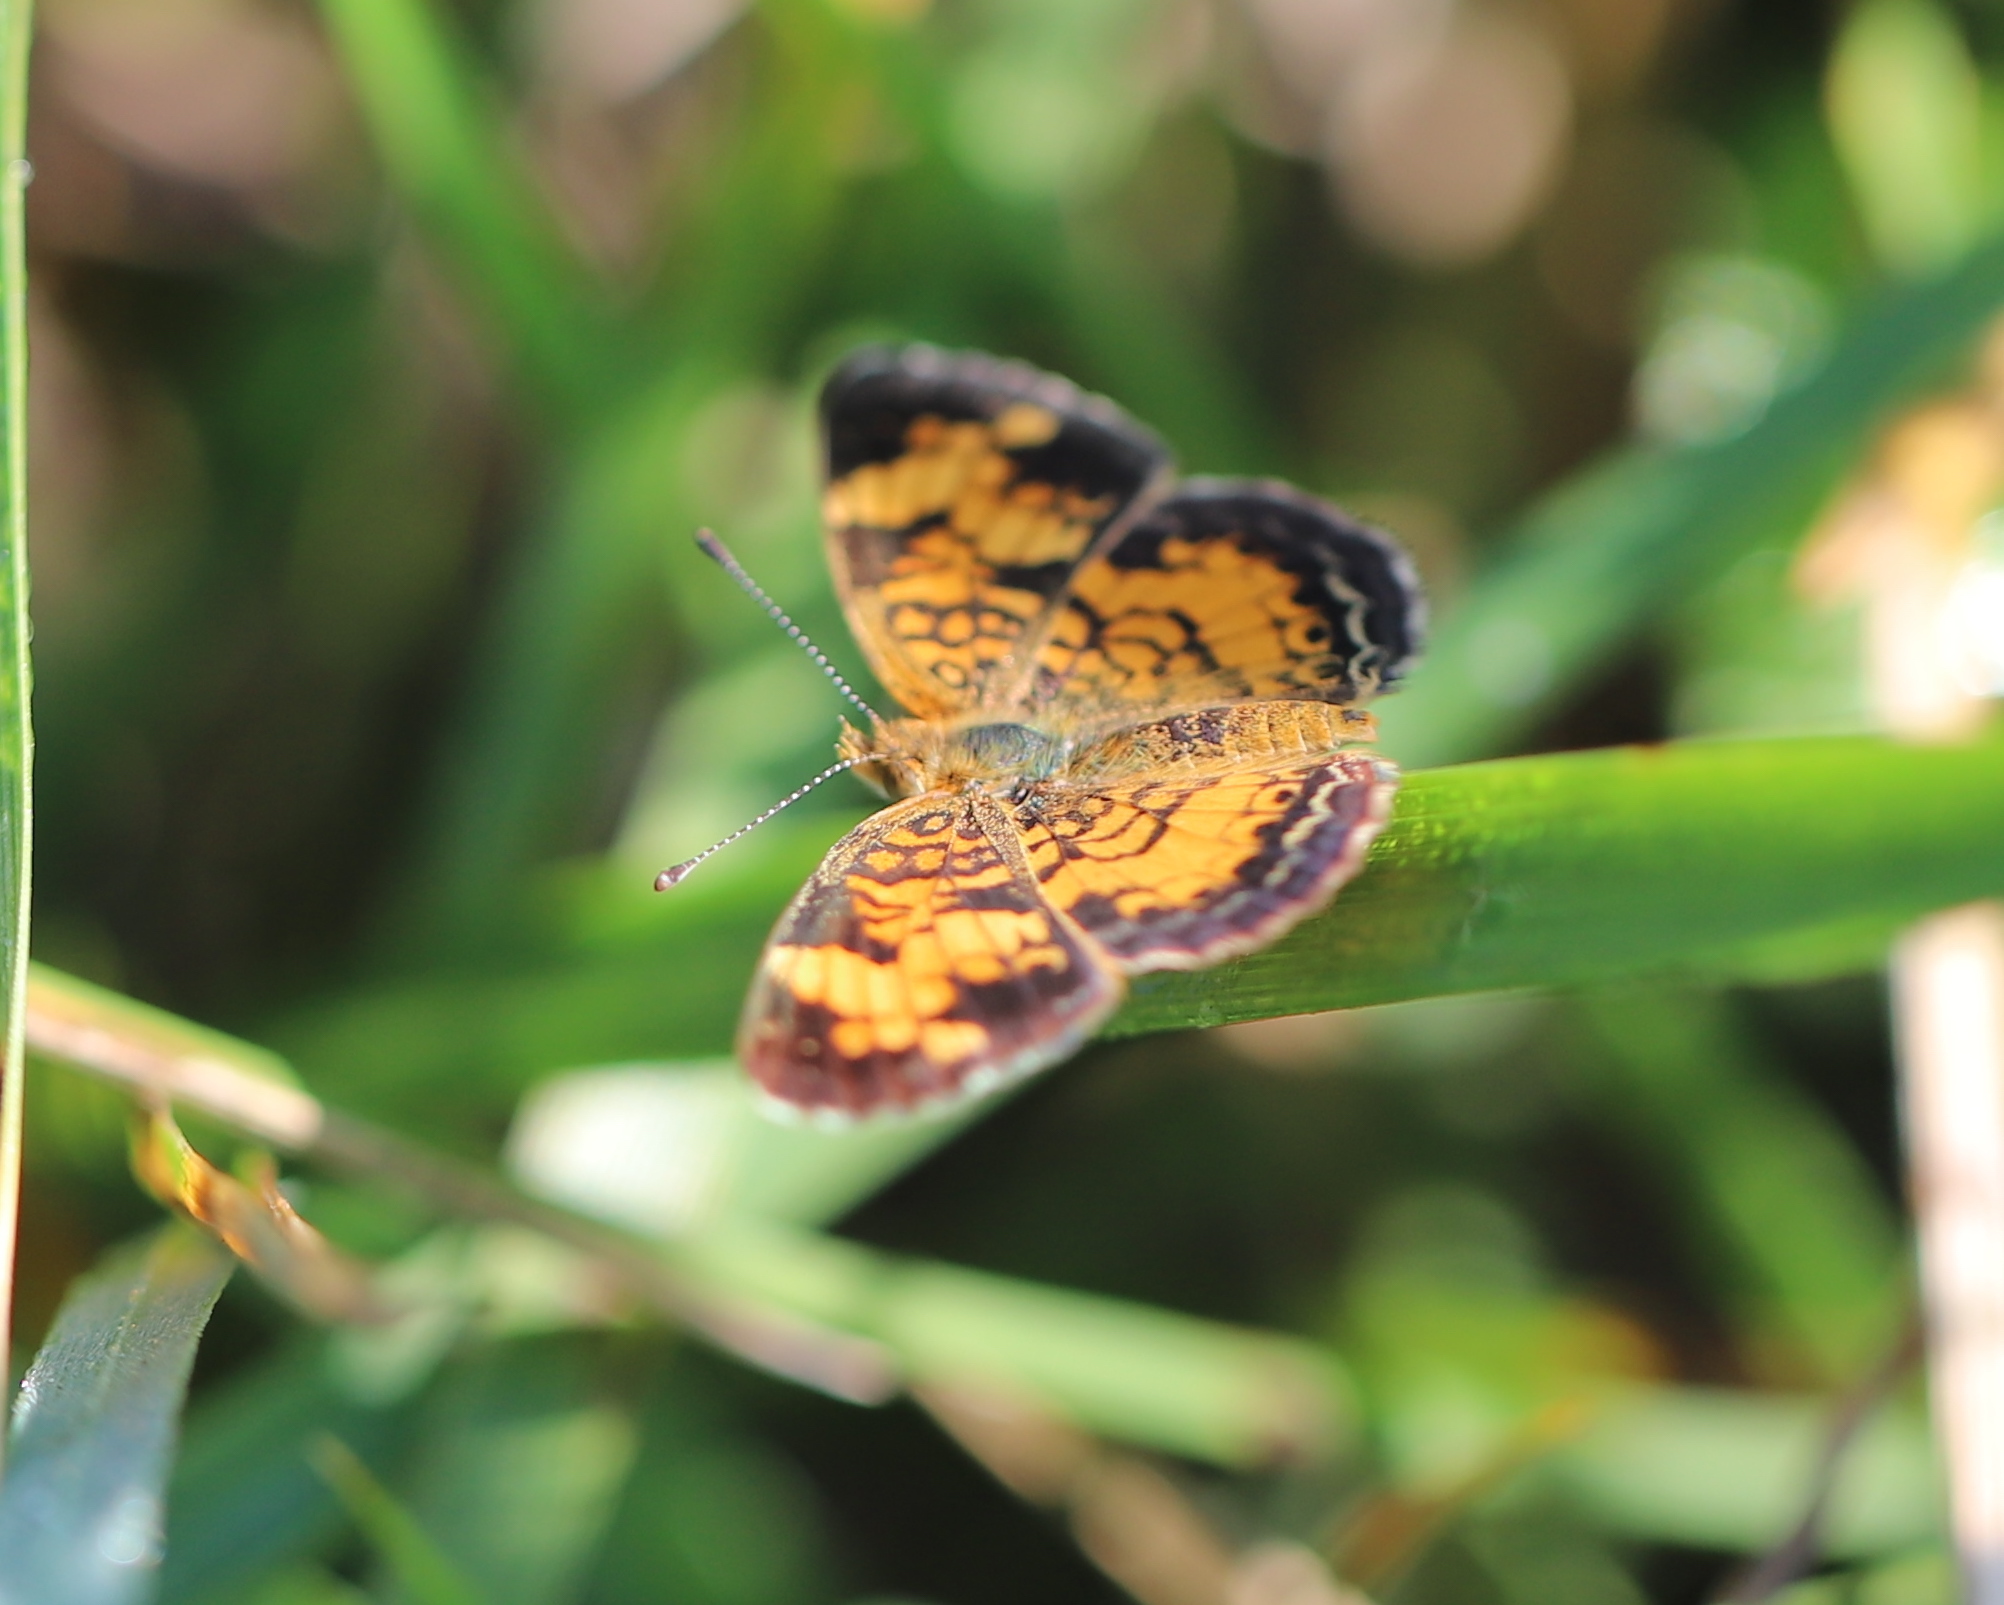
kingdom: Animalia
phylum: Arthropoda
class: Insecta
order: Lepidoptera
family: Nymphalidae
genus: Phyciodes
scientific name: Phyciodes tharos
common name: Pearl crescent
